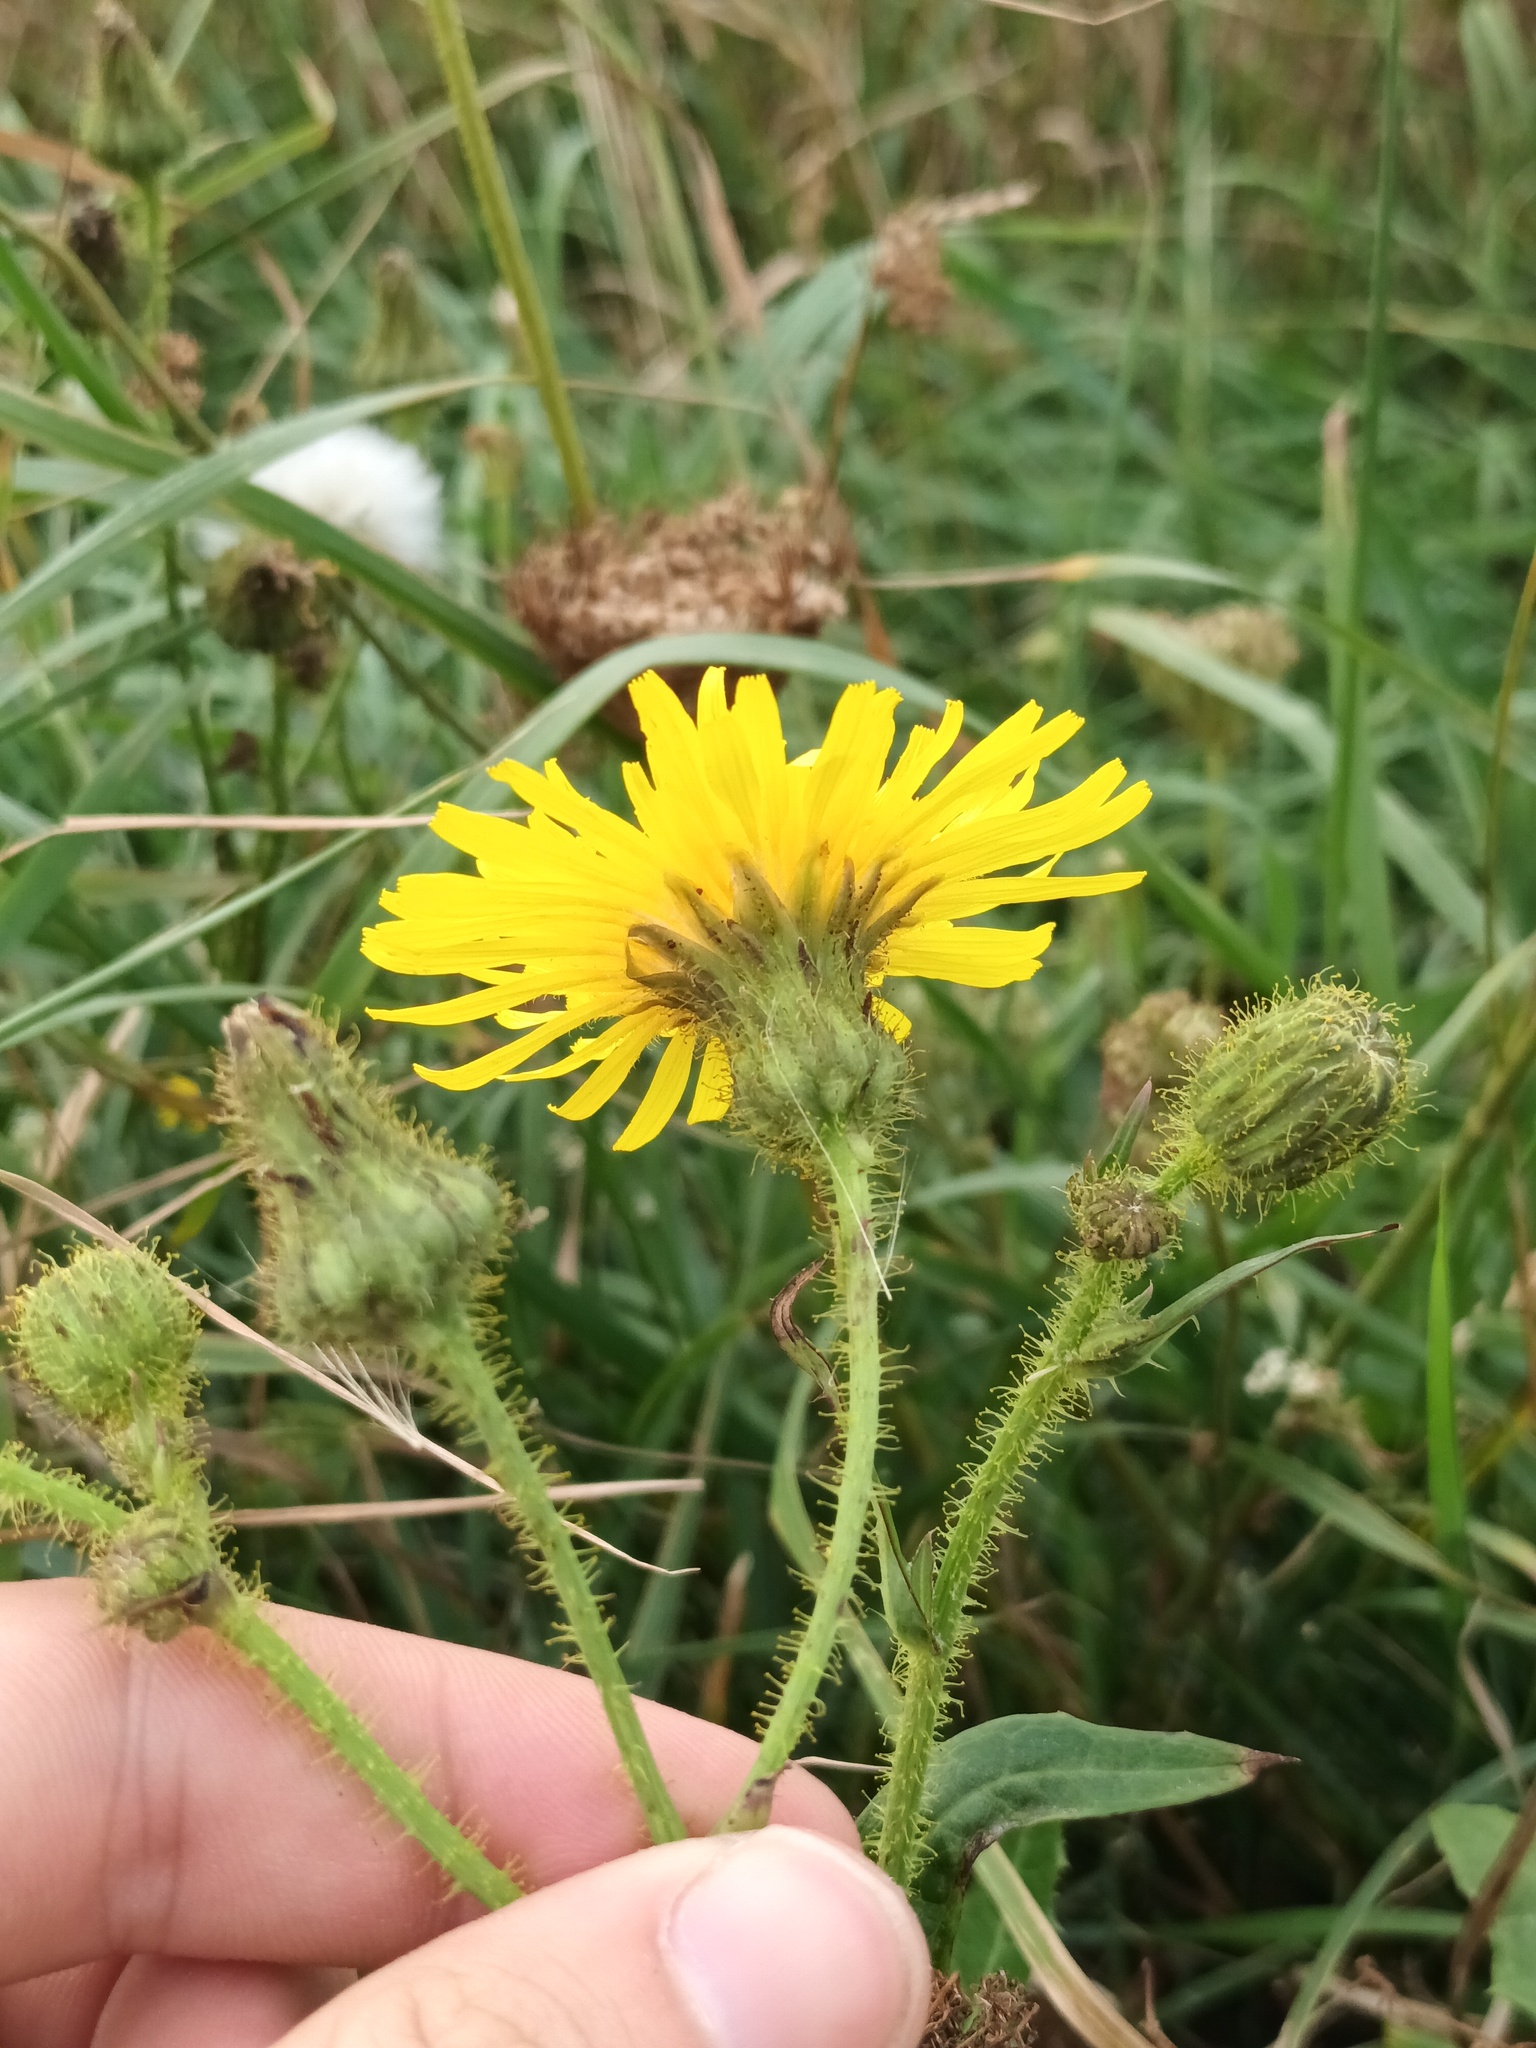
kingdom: Plantae
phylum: Tracheophyta
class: Magnoliopsida
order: Asterales
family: Asteraceae
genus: Sonchus
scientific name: Sonchus arvensis
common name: Perennial sow-thistle
